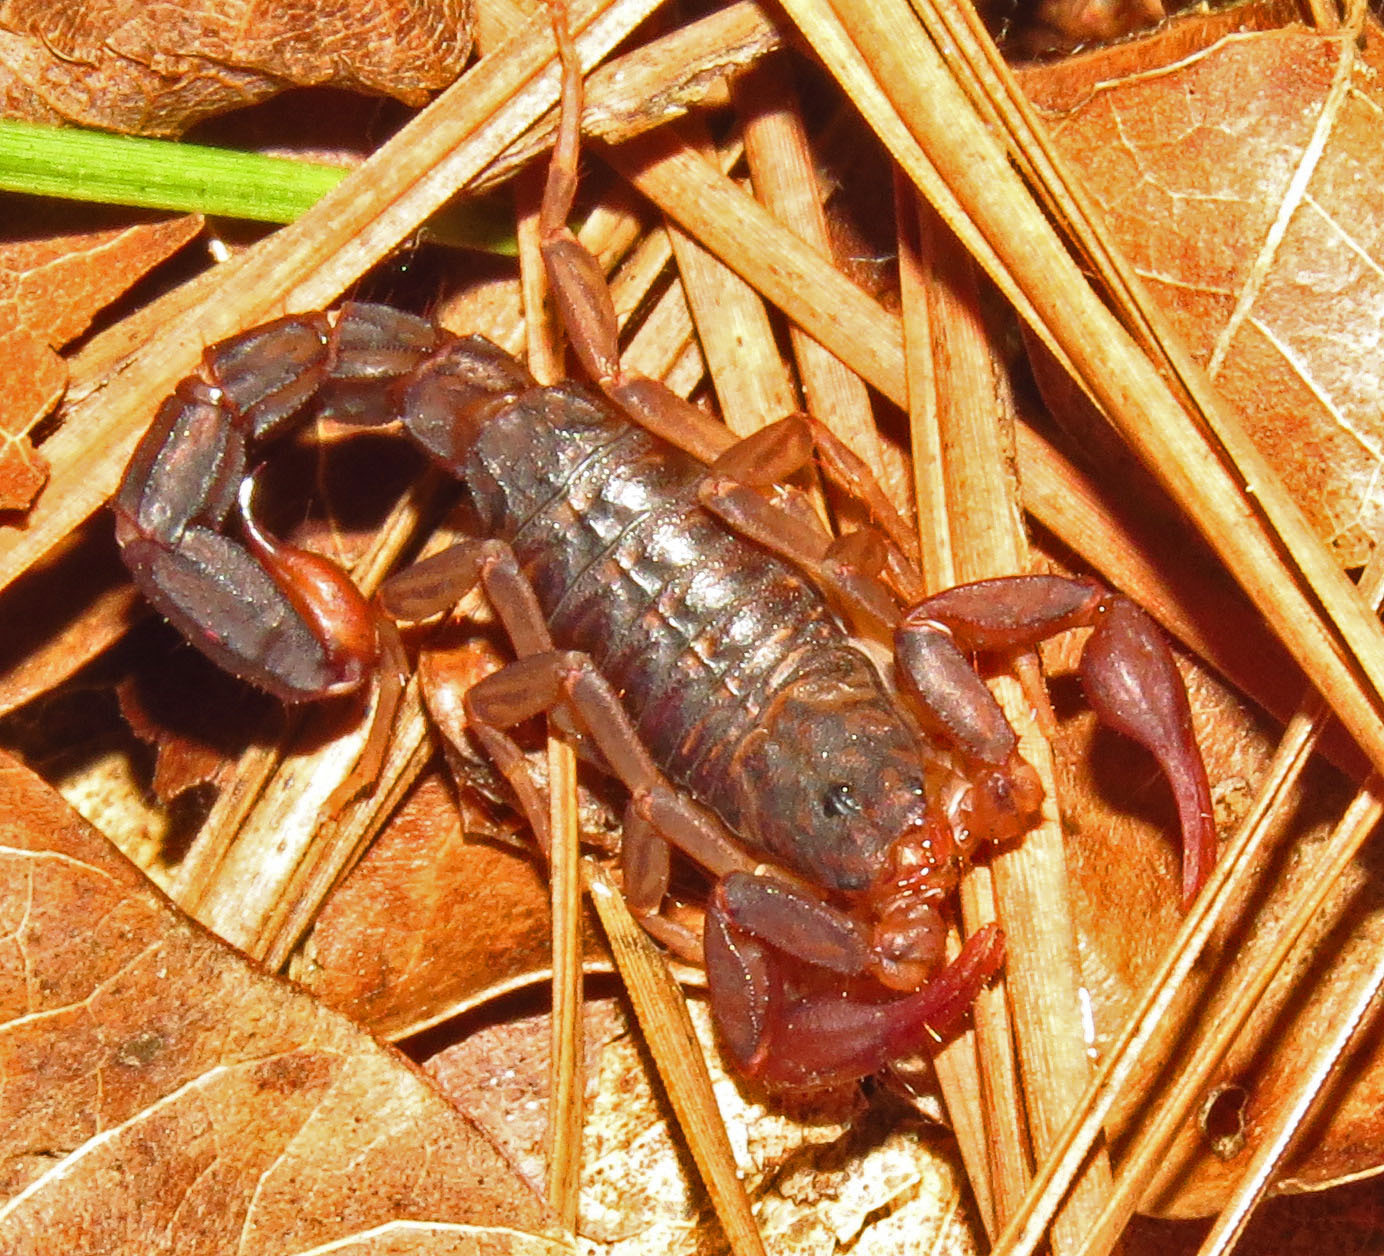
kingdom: Animalia
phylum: Arthropoda
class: Arachnida
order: Scorpiones
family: Vaejovidae
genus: Vaejovis
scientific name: Vaejovis carolinianus
